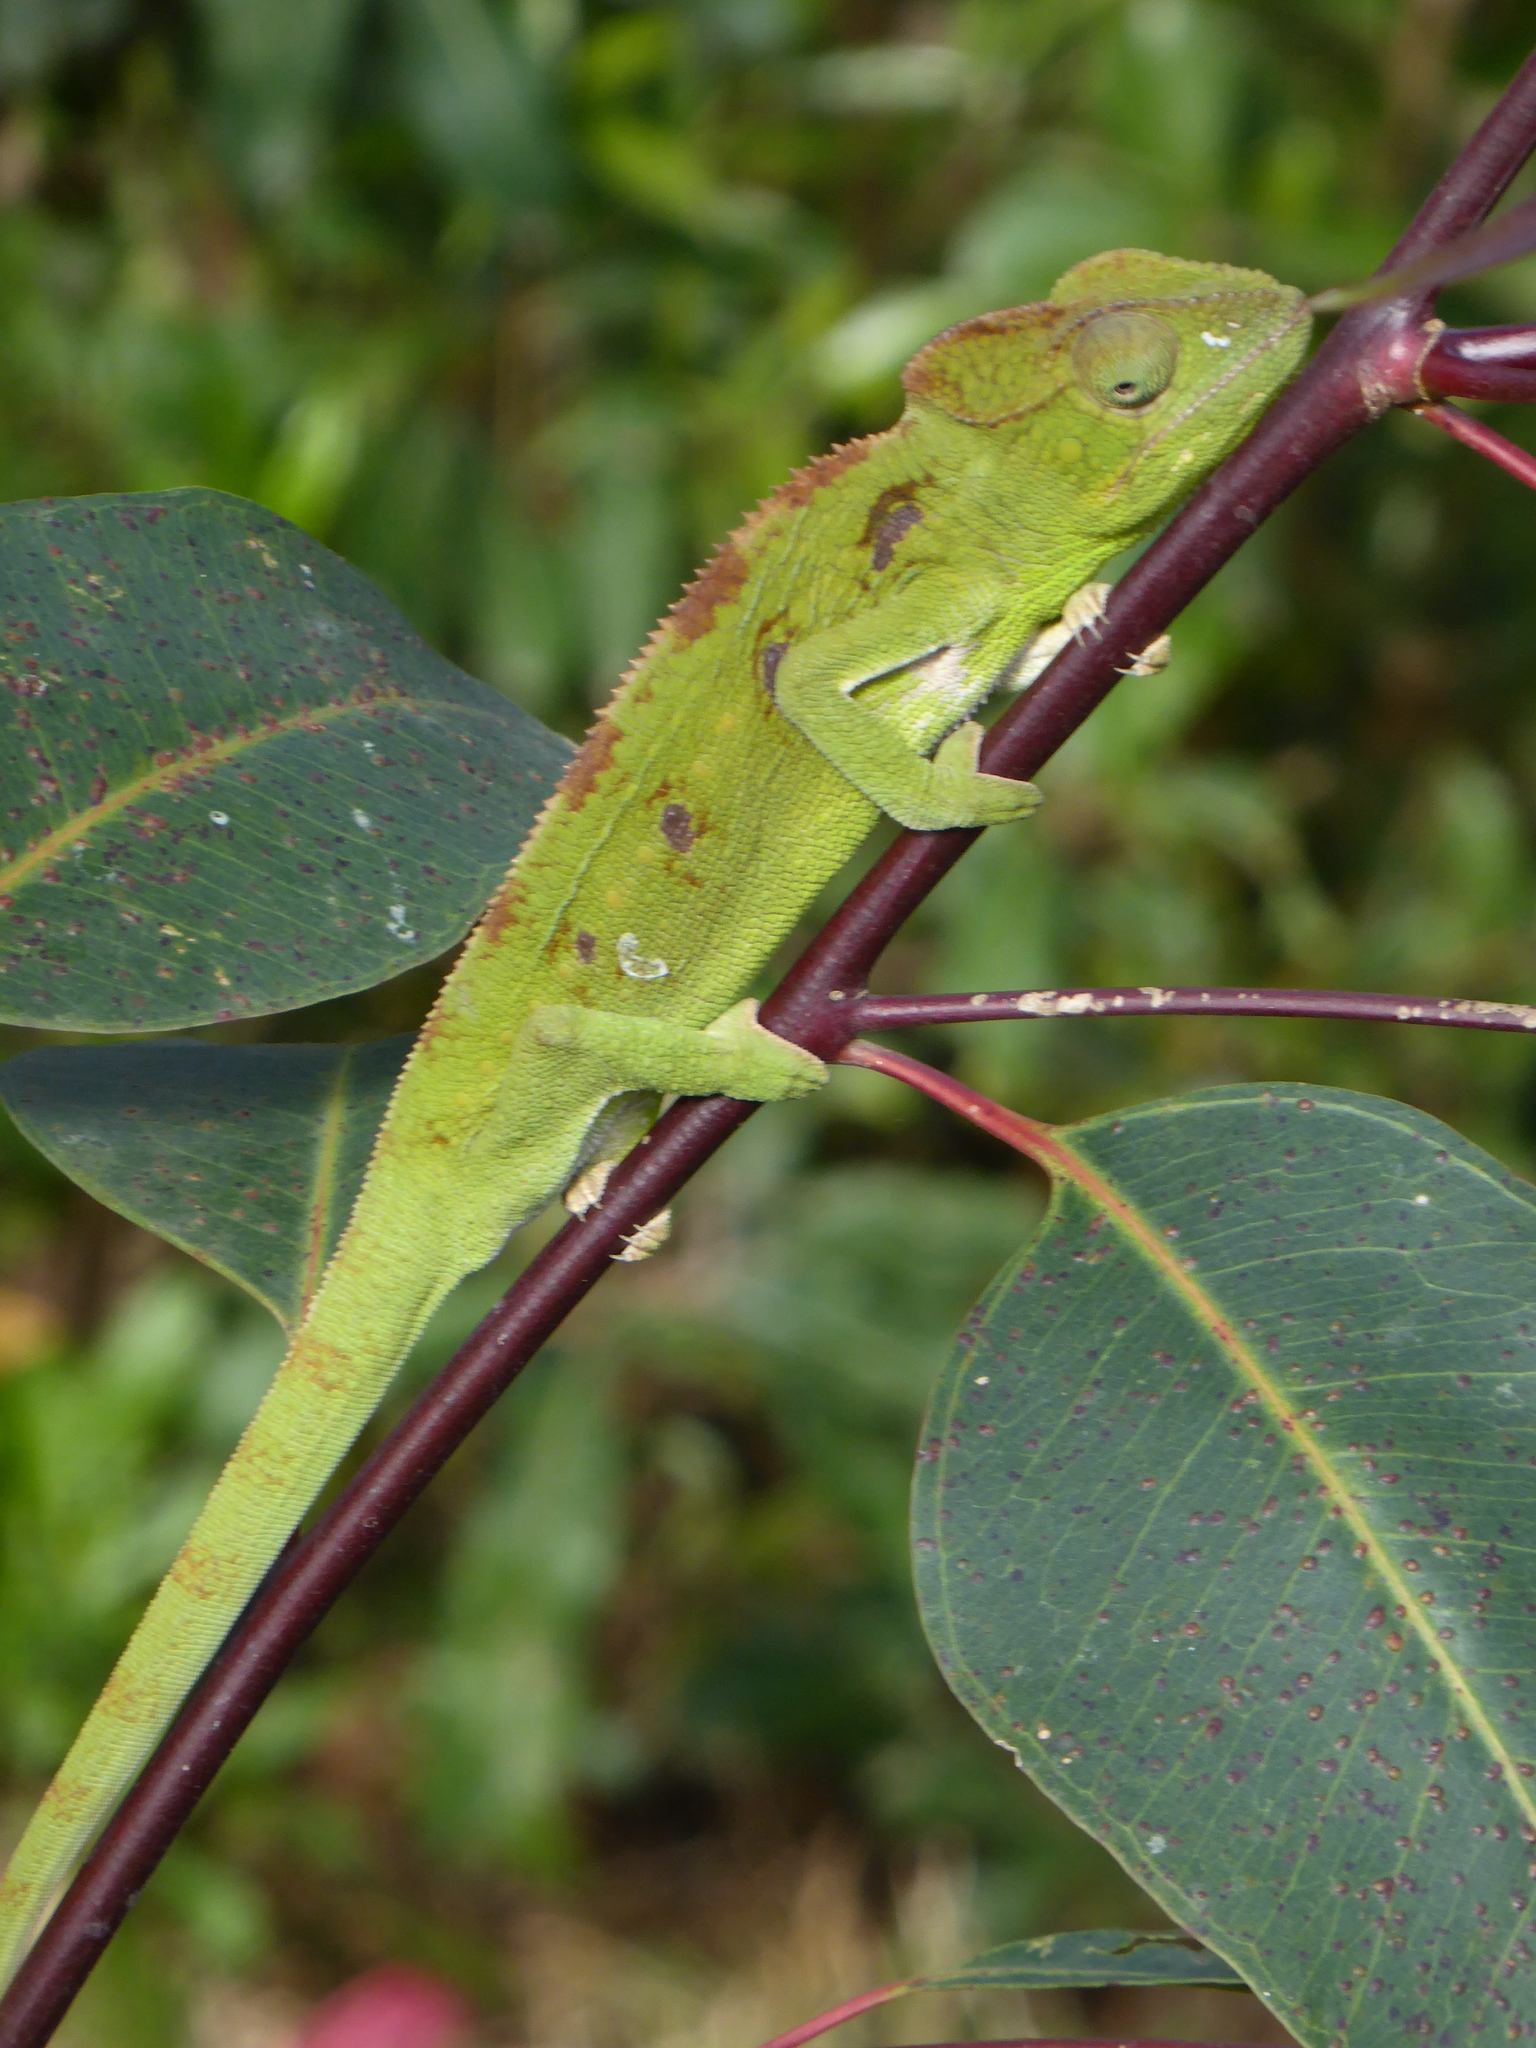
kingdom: Animalia
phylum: Chordata
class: Squamata
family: Chamaeleonidae
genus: Furcifer
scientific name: Furcifer oustaleti
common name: Oustalet's chameleon
